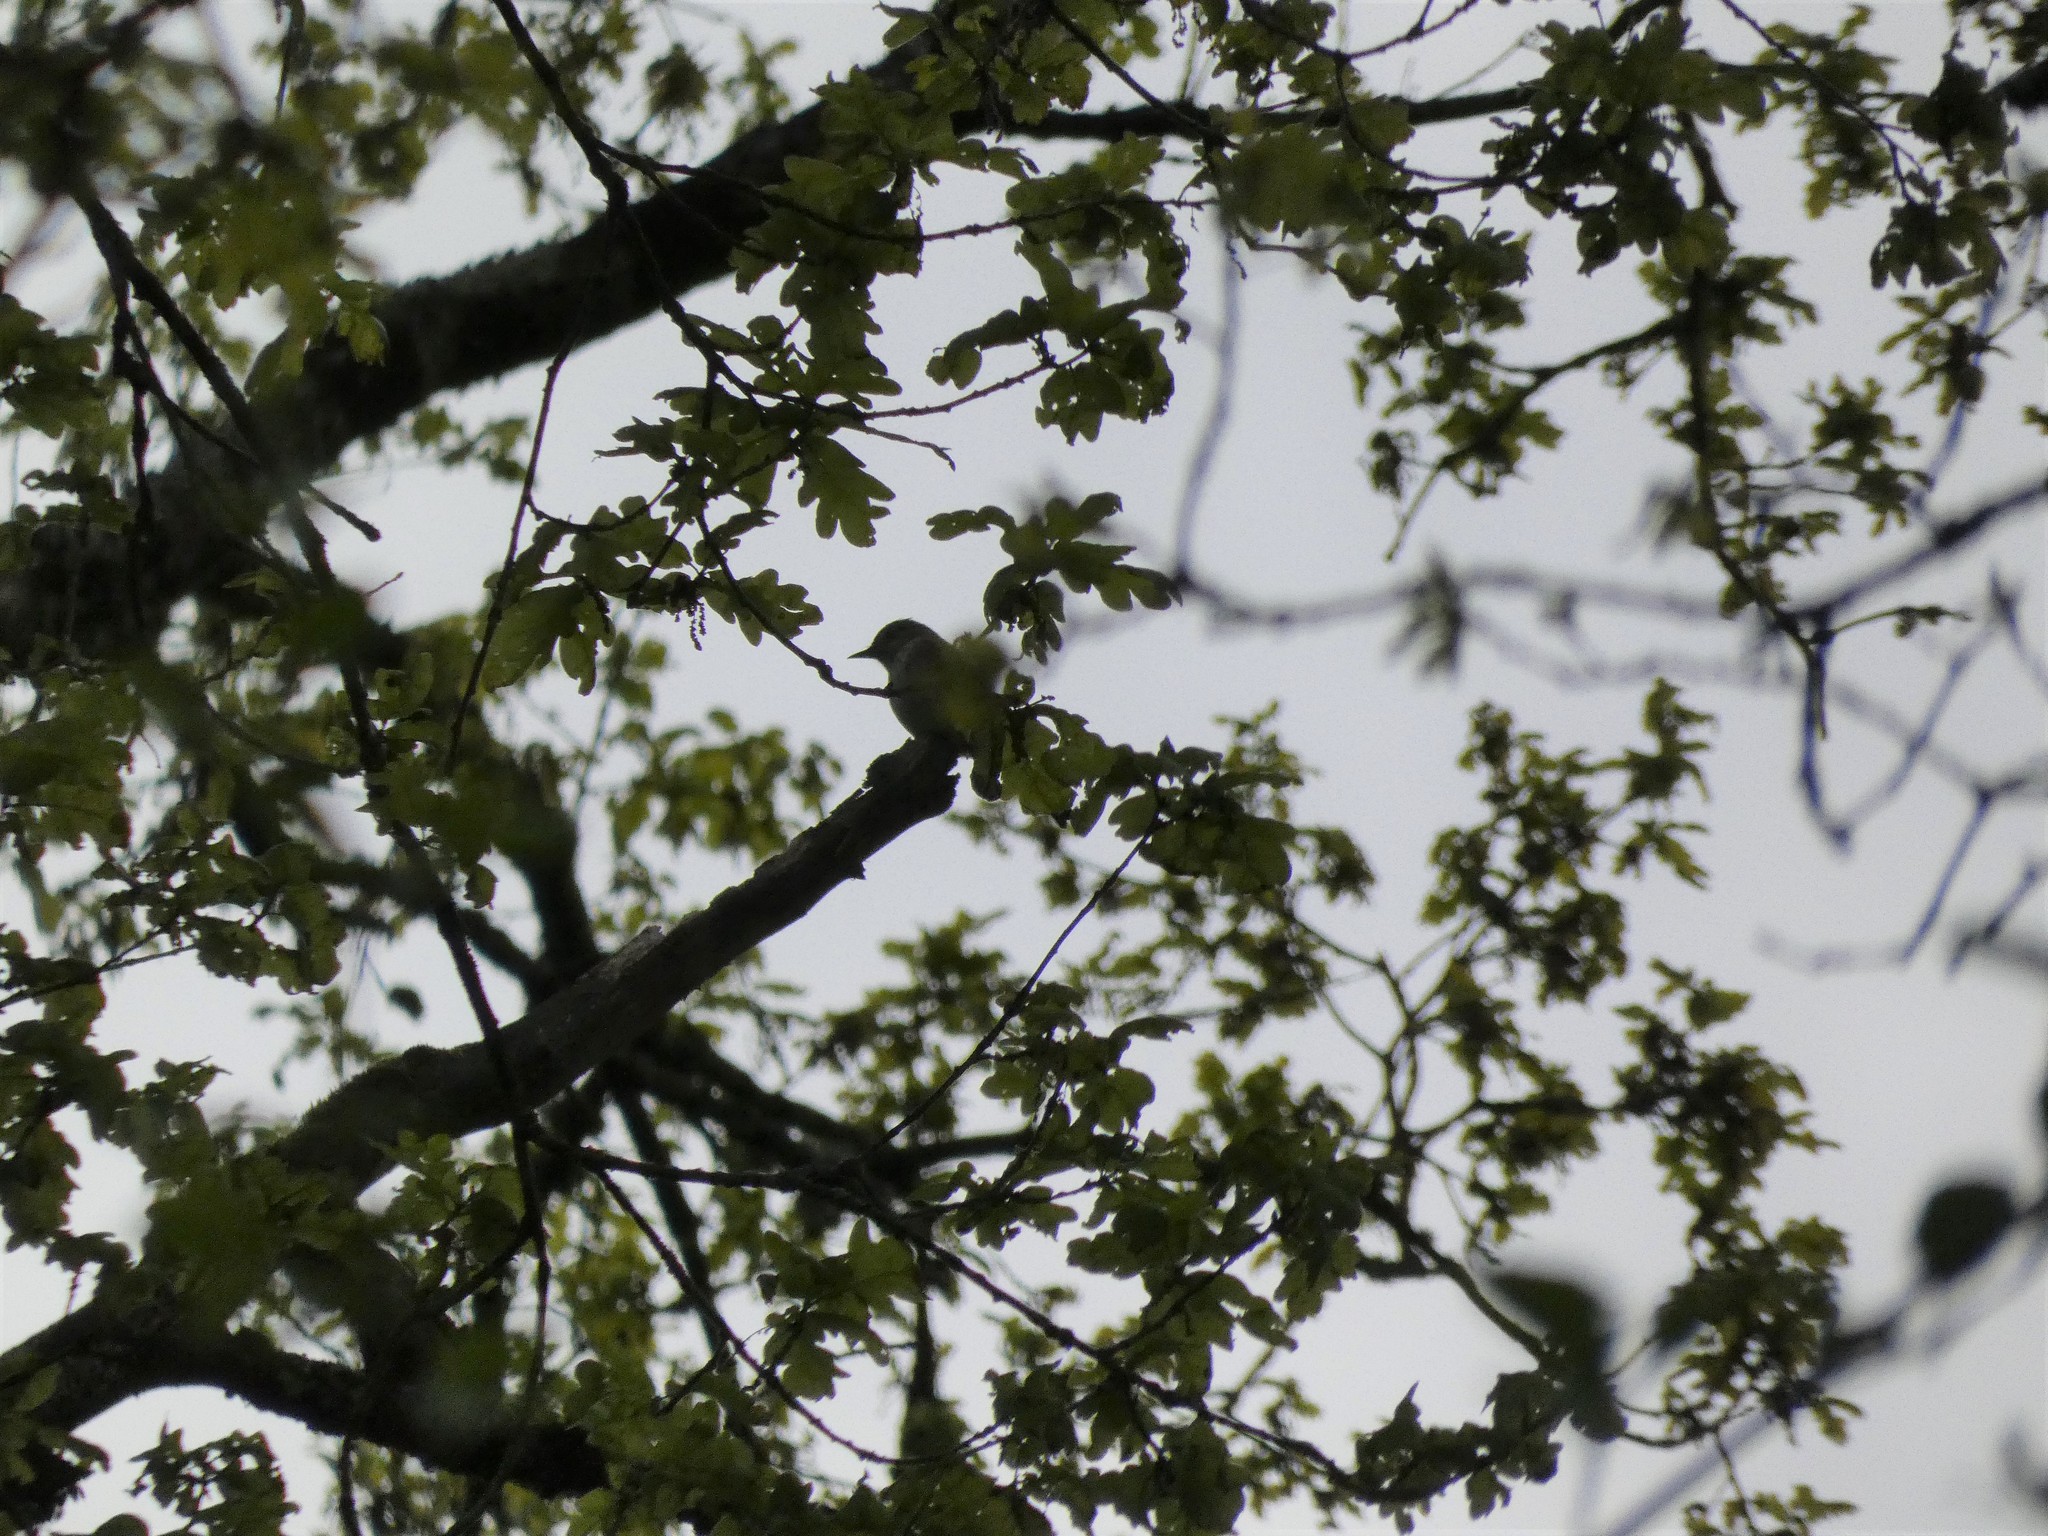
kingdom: Animalia
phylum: Chordata
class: Aves
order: Passeriformes
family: Muscicapidae
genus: Saxicola
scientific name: Saxicola rubicola
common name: European stonechat
